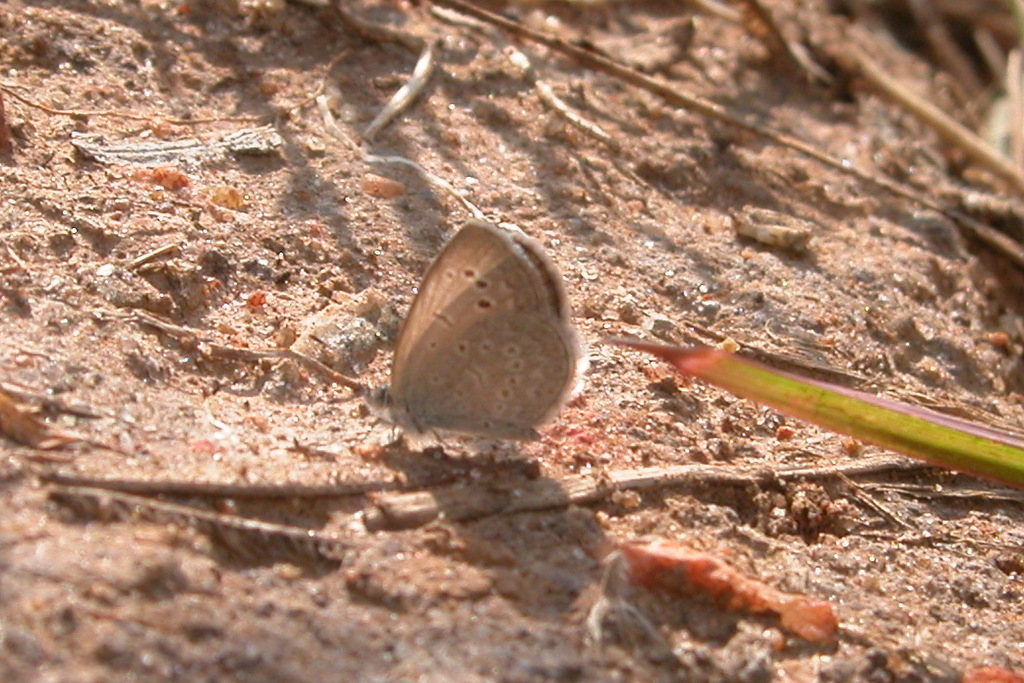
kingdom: Animalia
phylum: Arthropoda
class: Insecta
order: Lepidoptera
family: Lycaenidae
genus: Zizina
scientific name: Zizina otis
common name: Lesser grass blue
